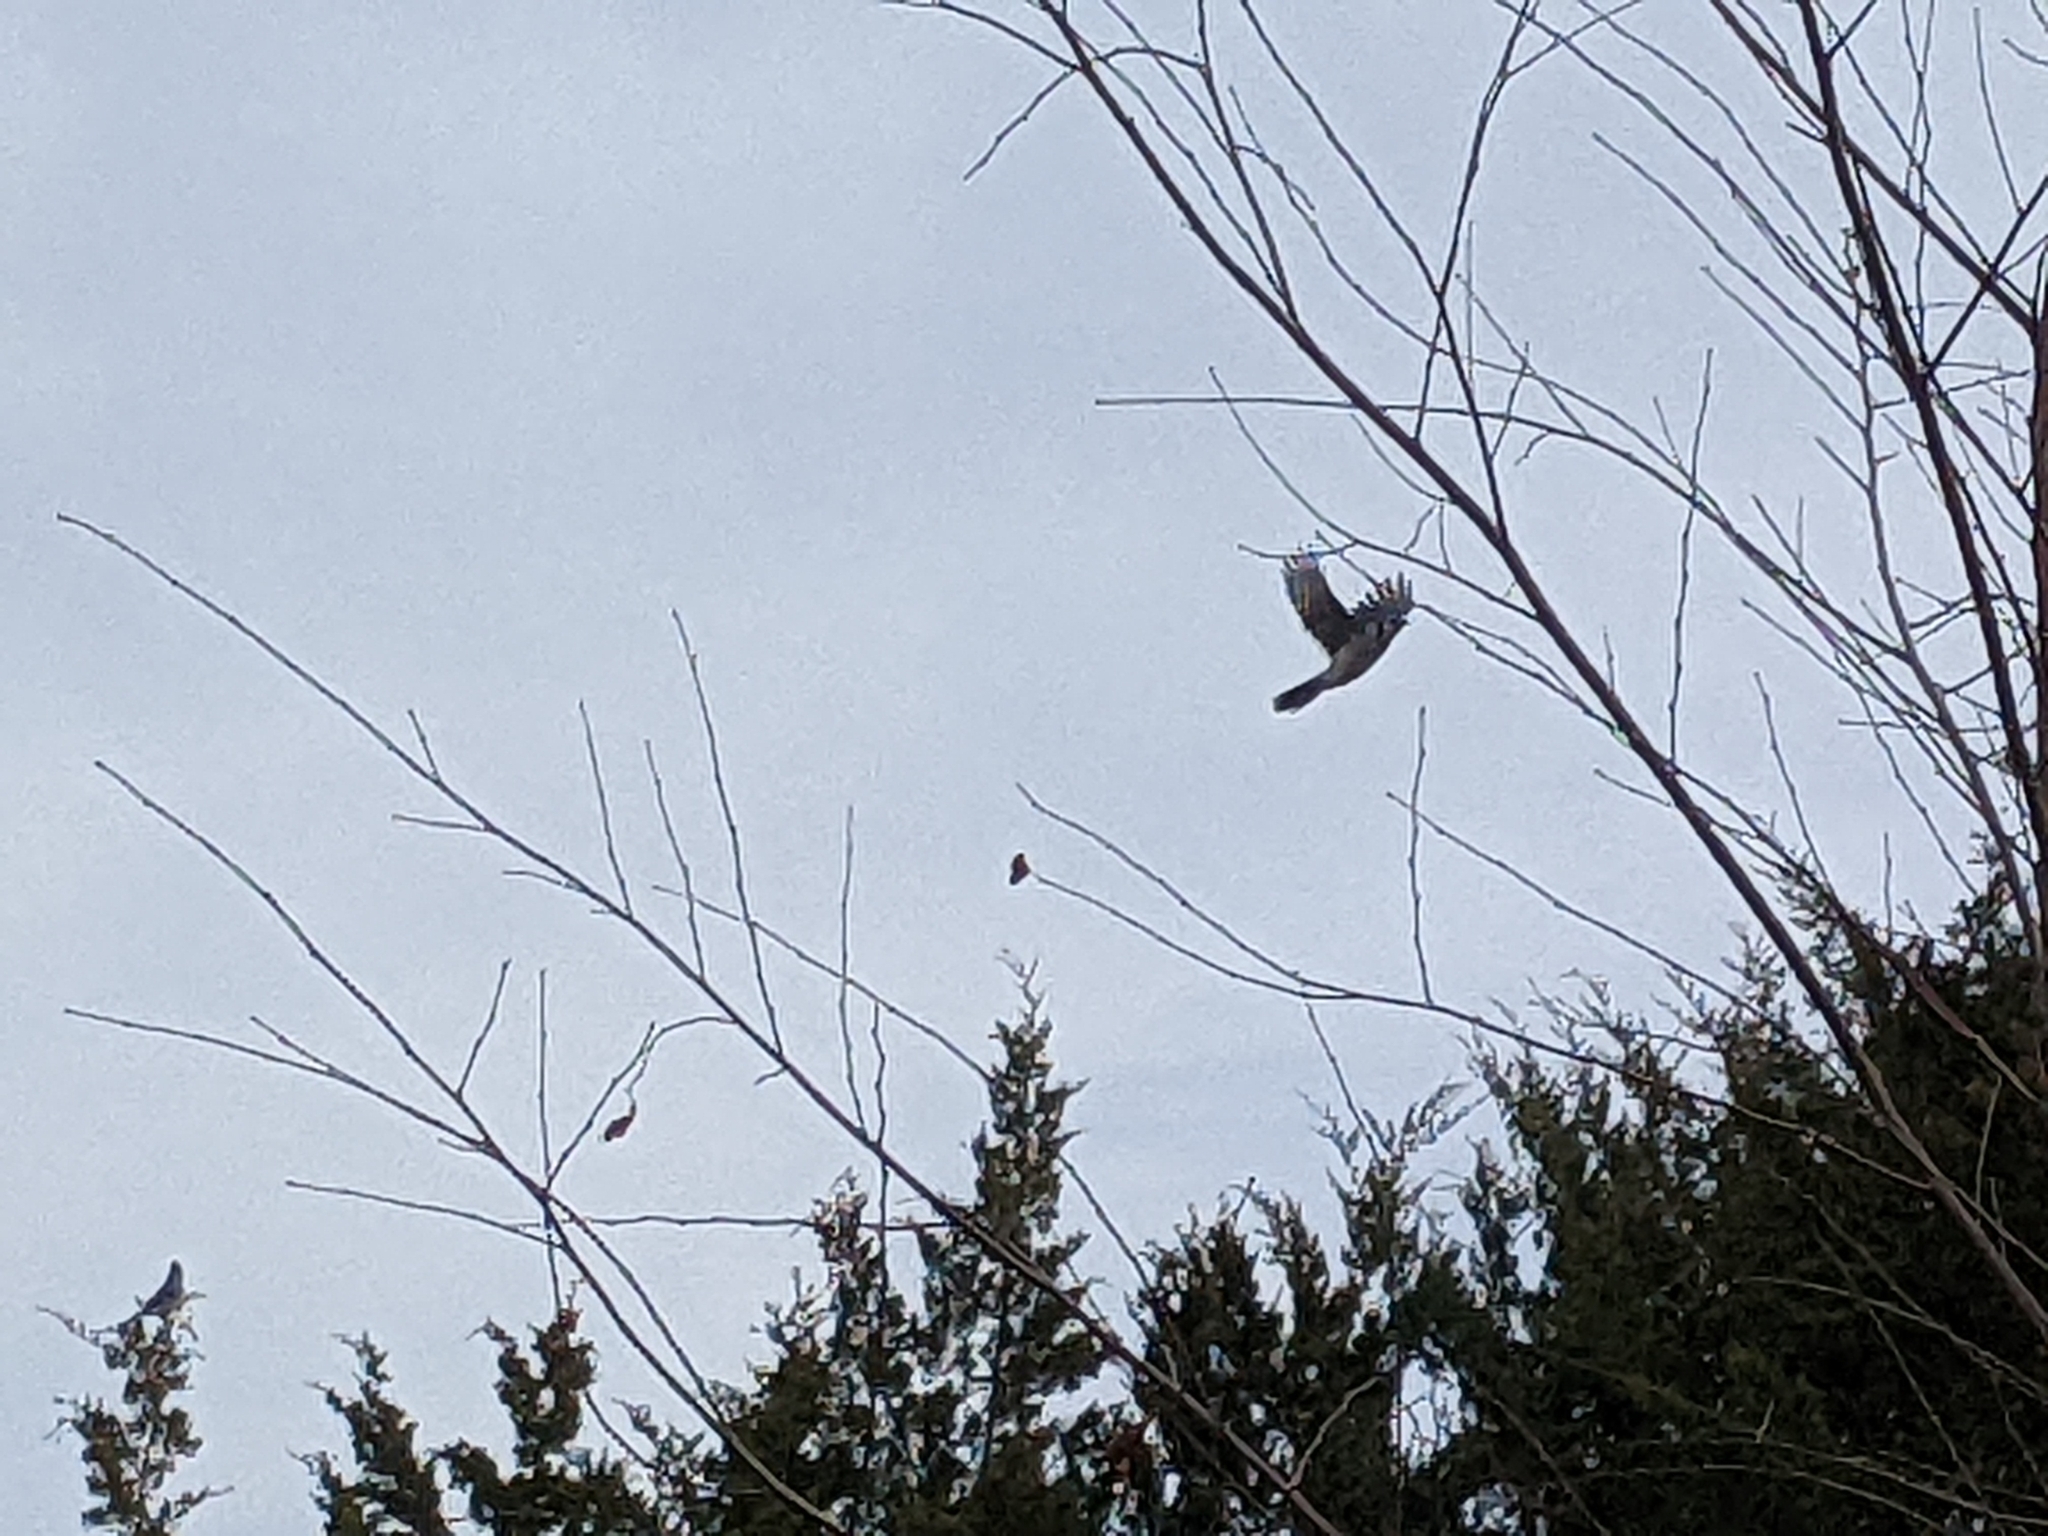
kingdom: Animalia
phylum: Chordata
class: Aves
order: Passeriformes
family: Corvidae
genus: Cyanocitta
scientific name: Cyanocitta cristata
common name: Blue jay
